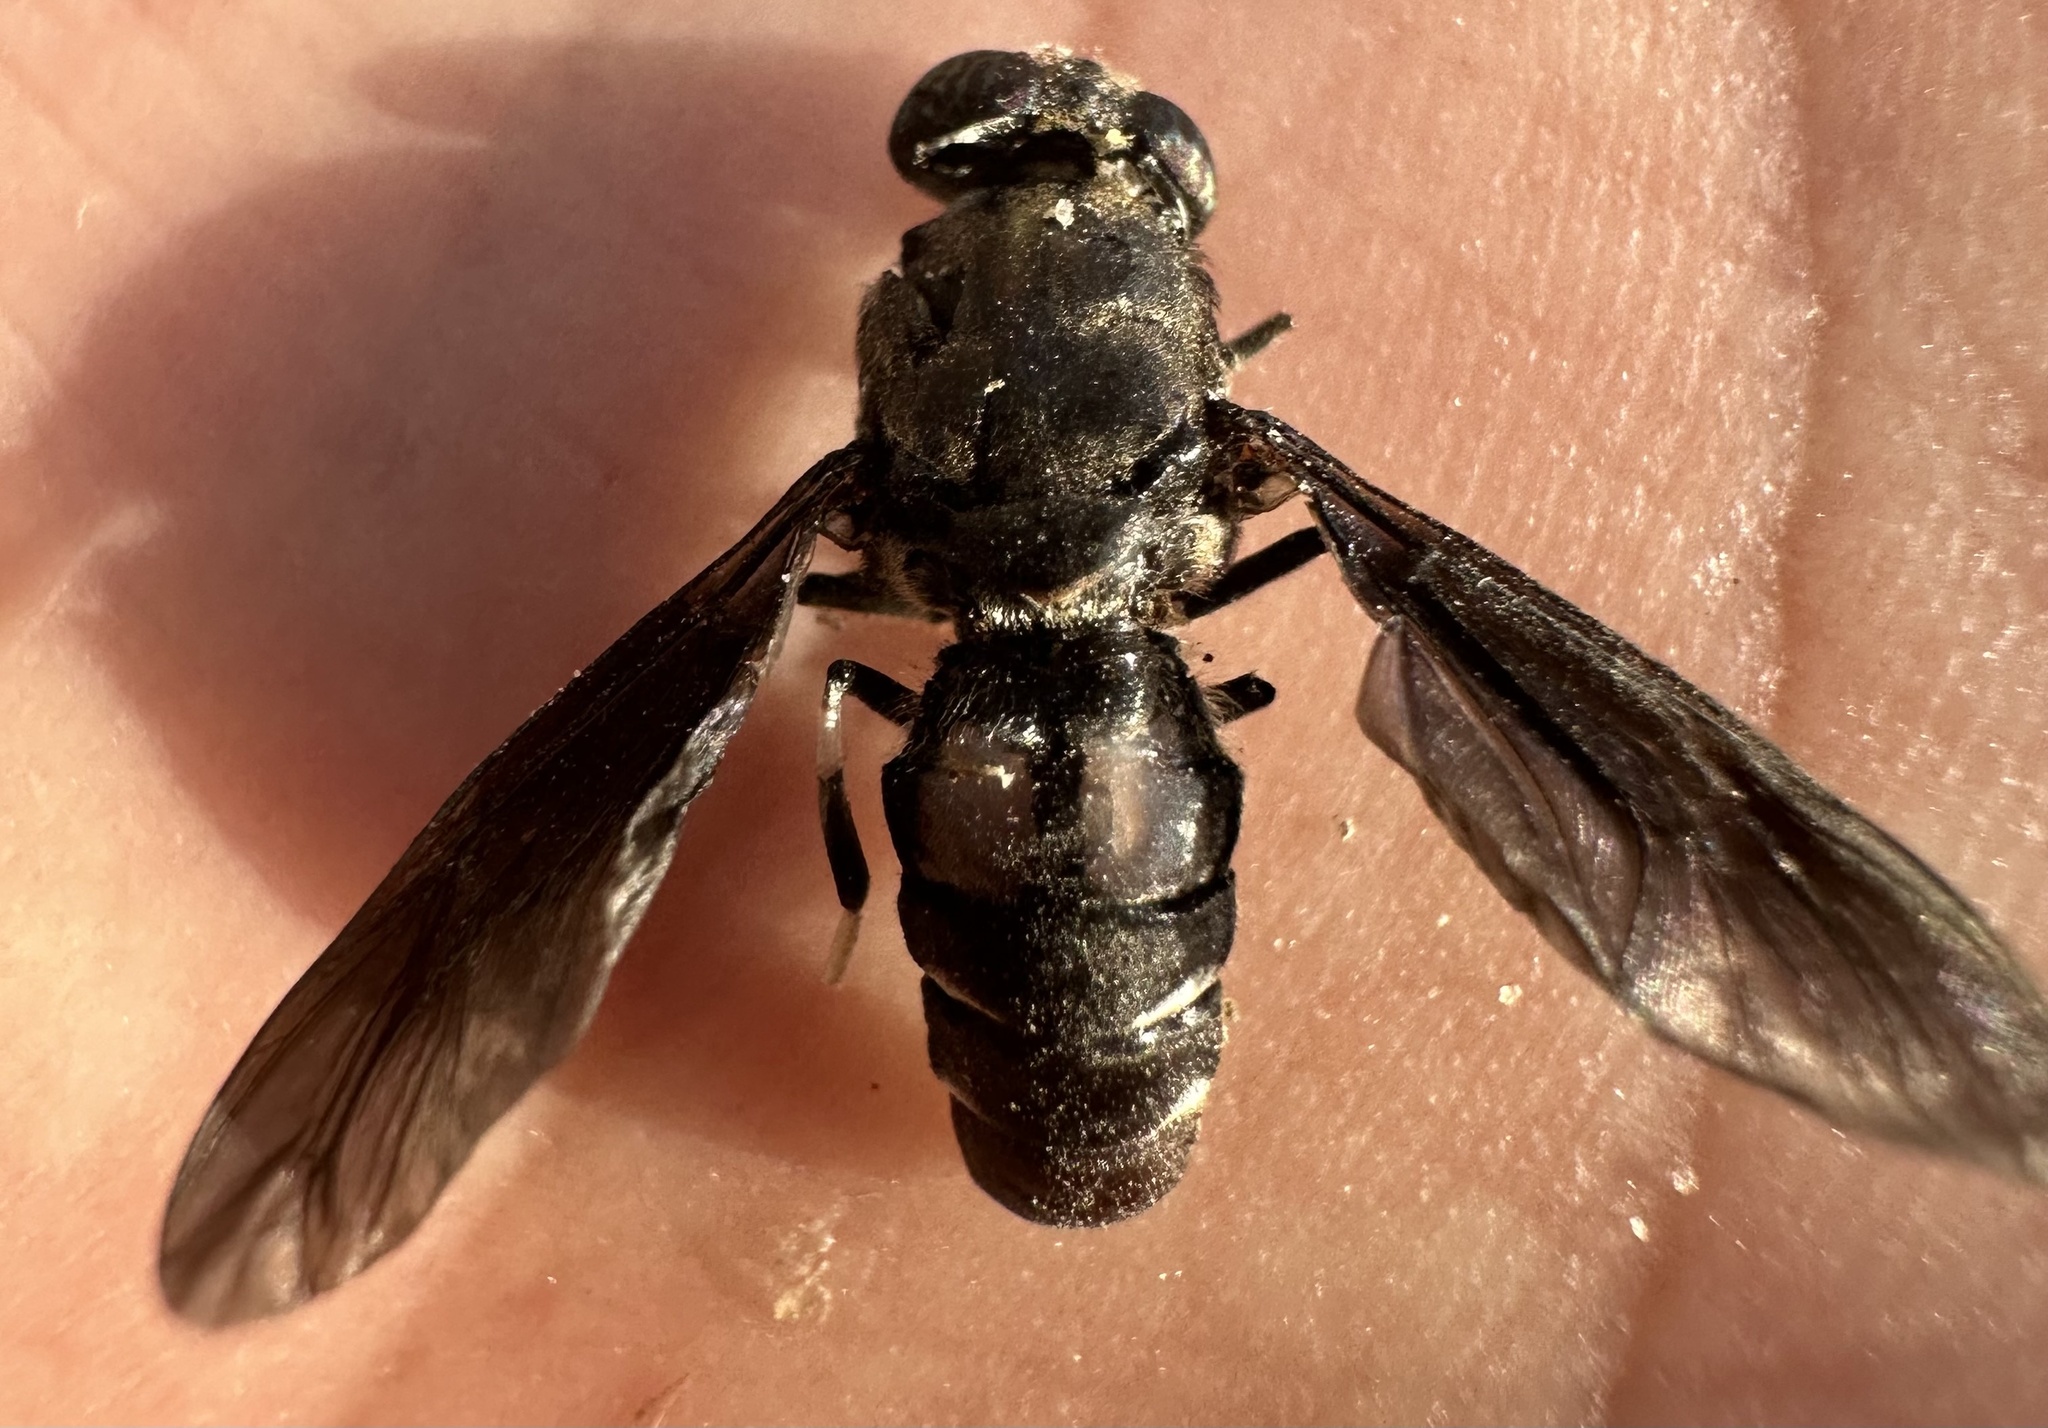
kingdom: Animalia
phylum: Arthropoda
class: Insecta
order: Diptera
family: Stratiomyidae
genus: Hermetia
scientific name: Hermetia illucens
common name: Black soldier fly
